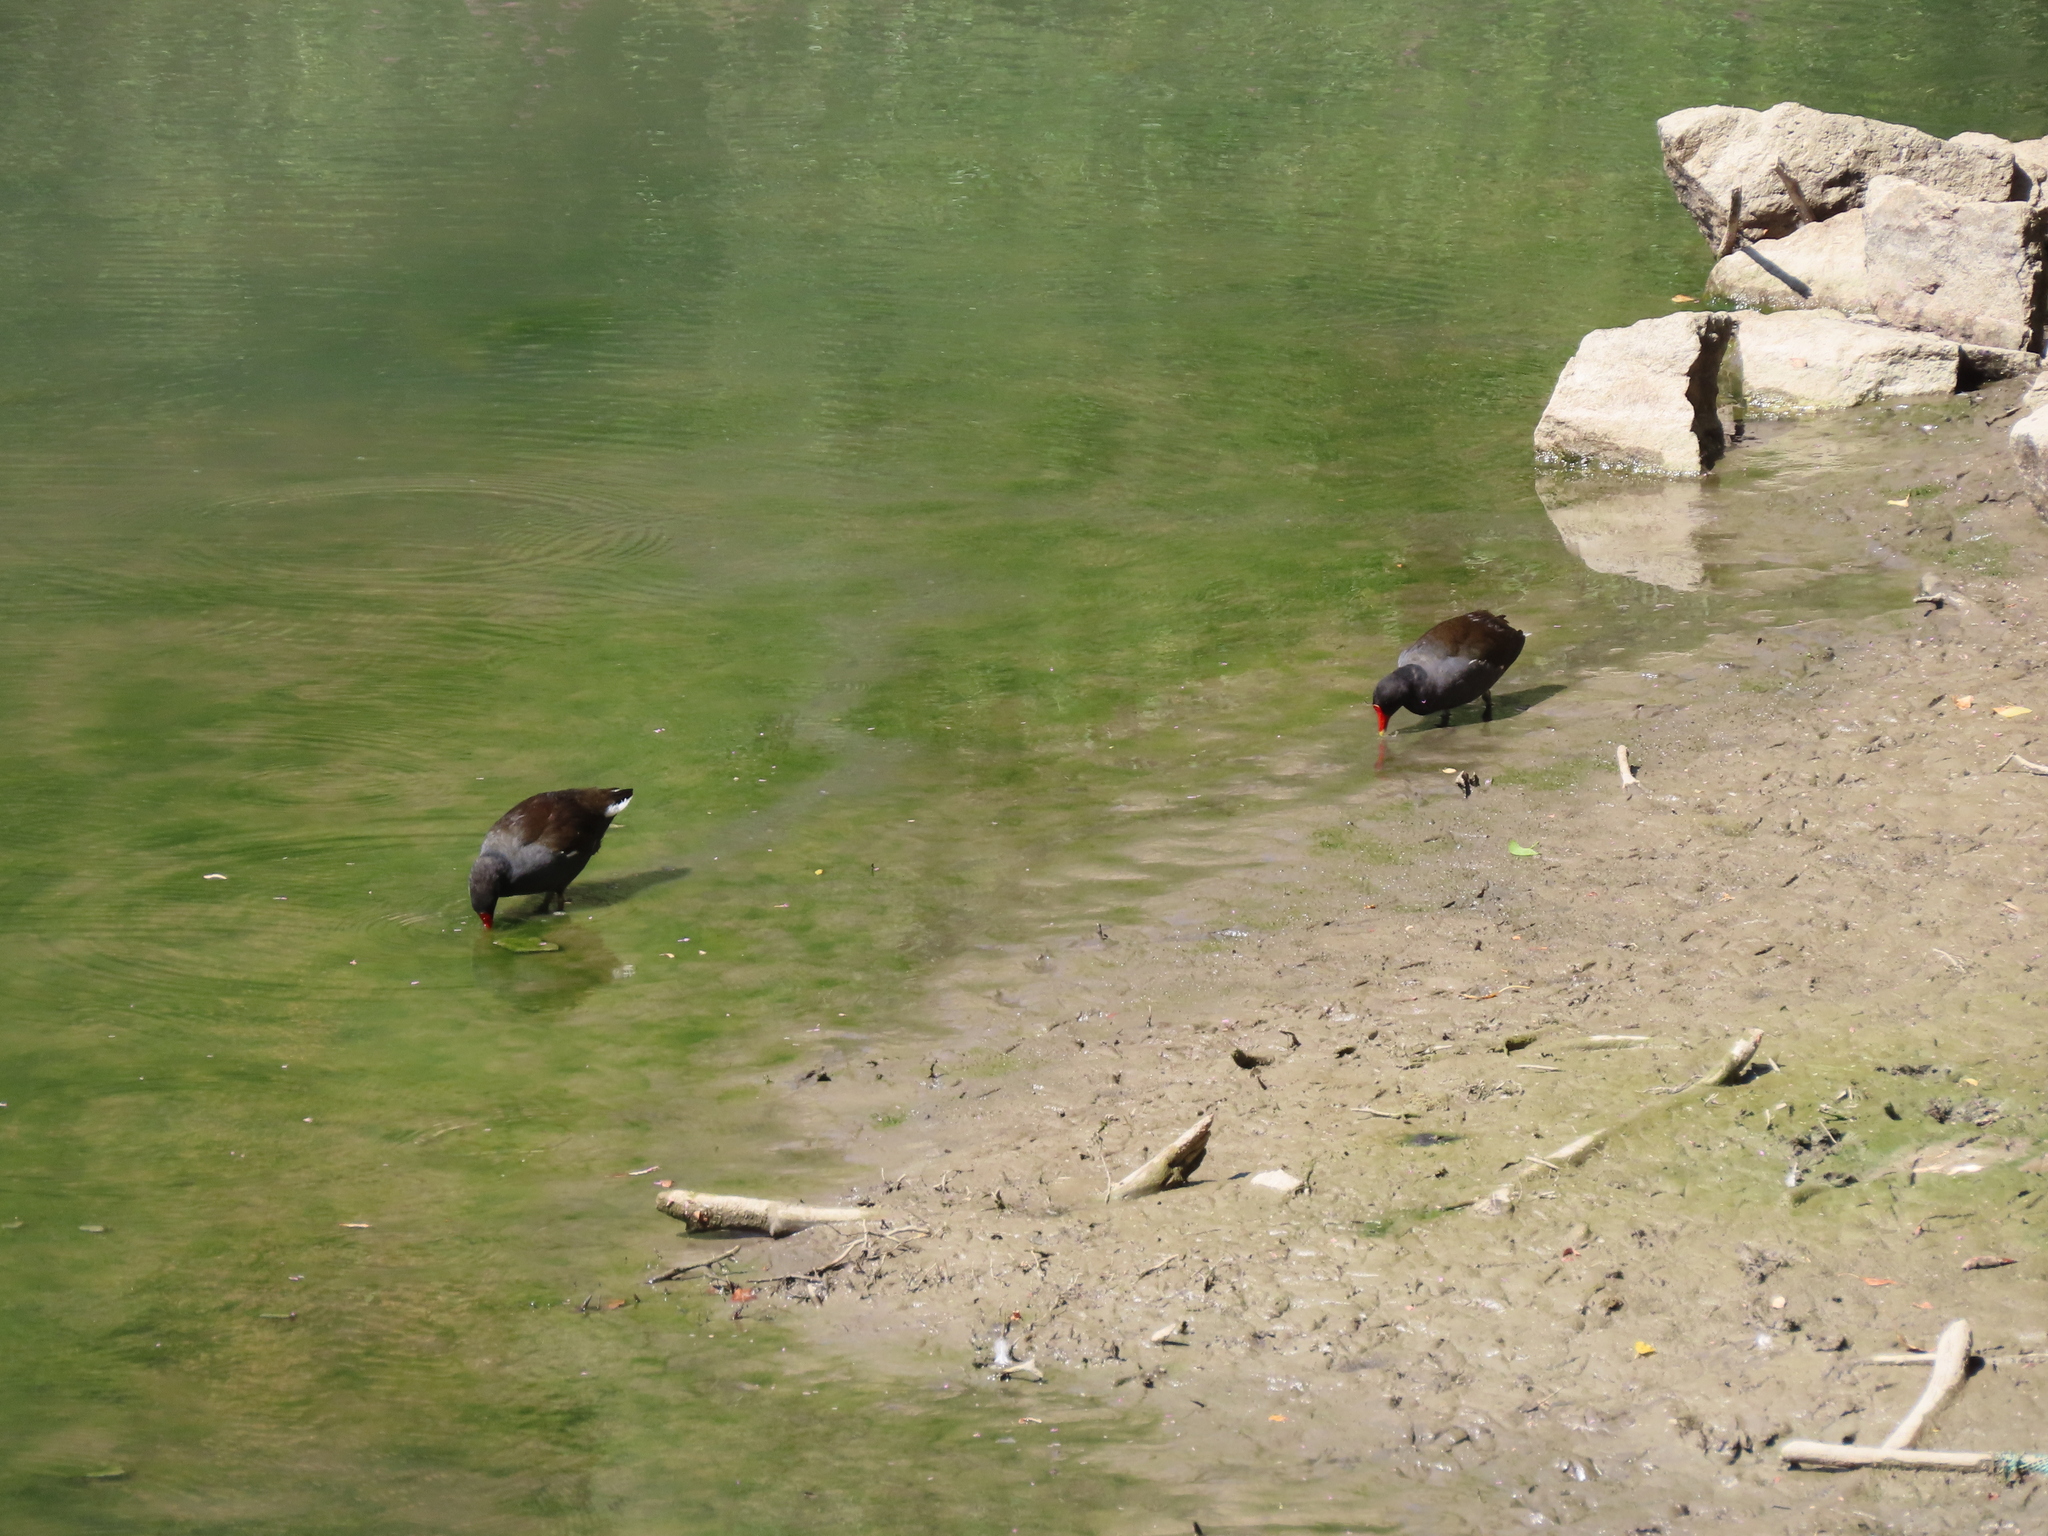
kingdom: Animalia
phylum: Chordata
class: Aves
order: Gruiformes
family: Rallidae
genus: Gallinula
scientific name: Gallinula chloropus
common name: Common moorhen
